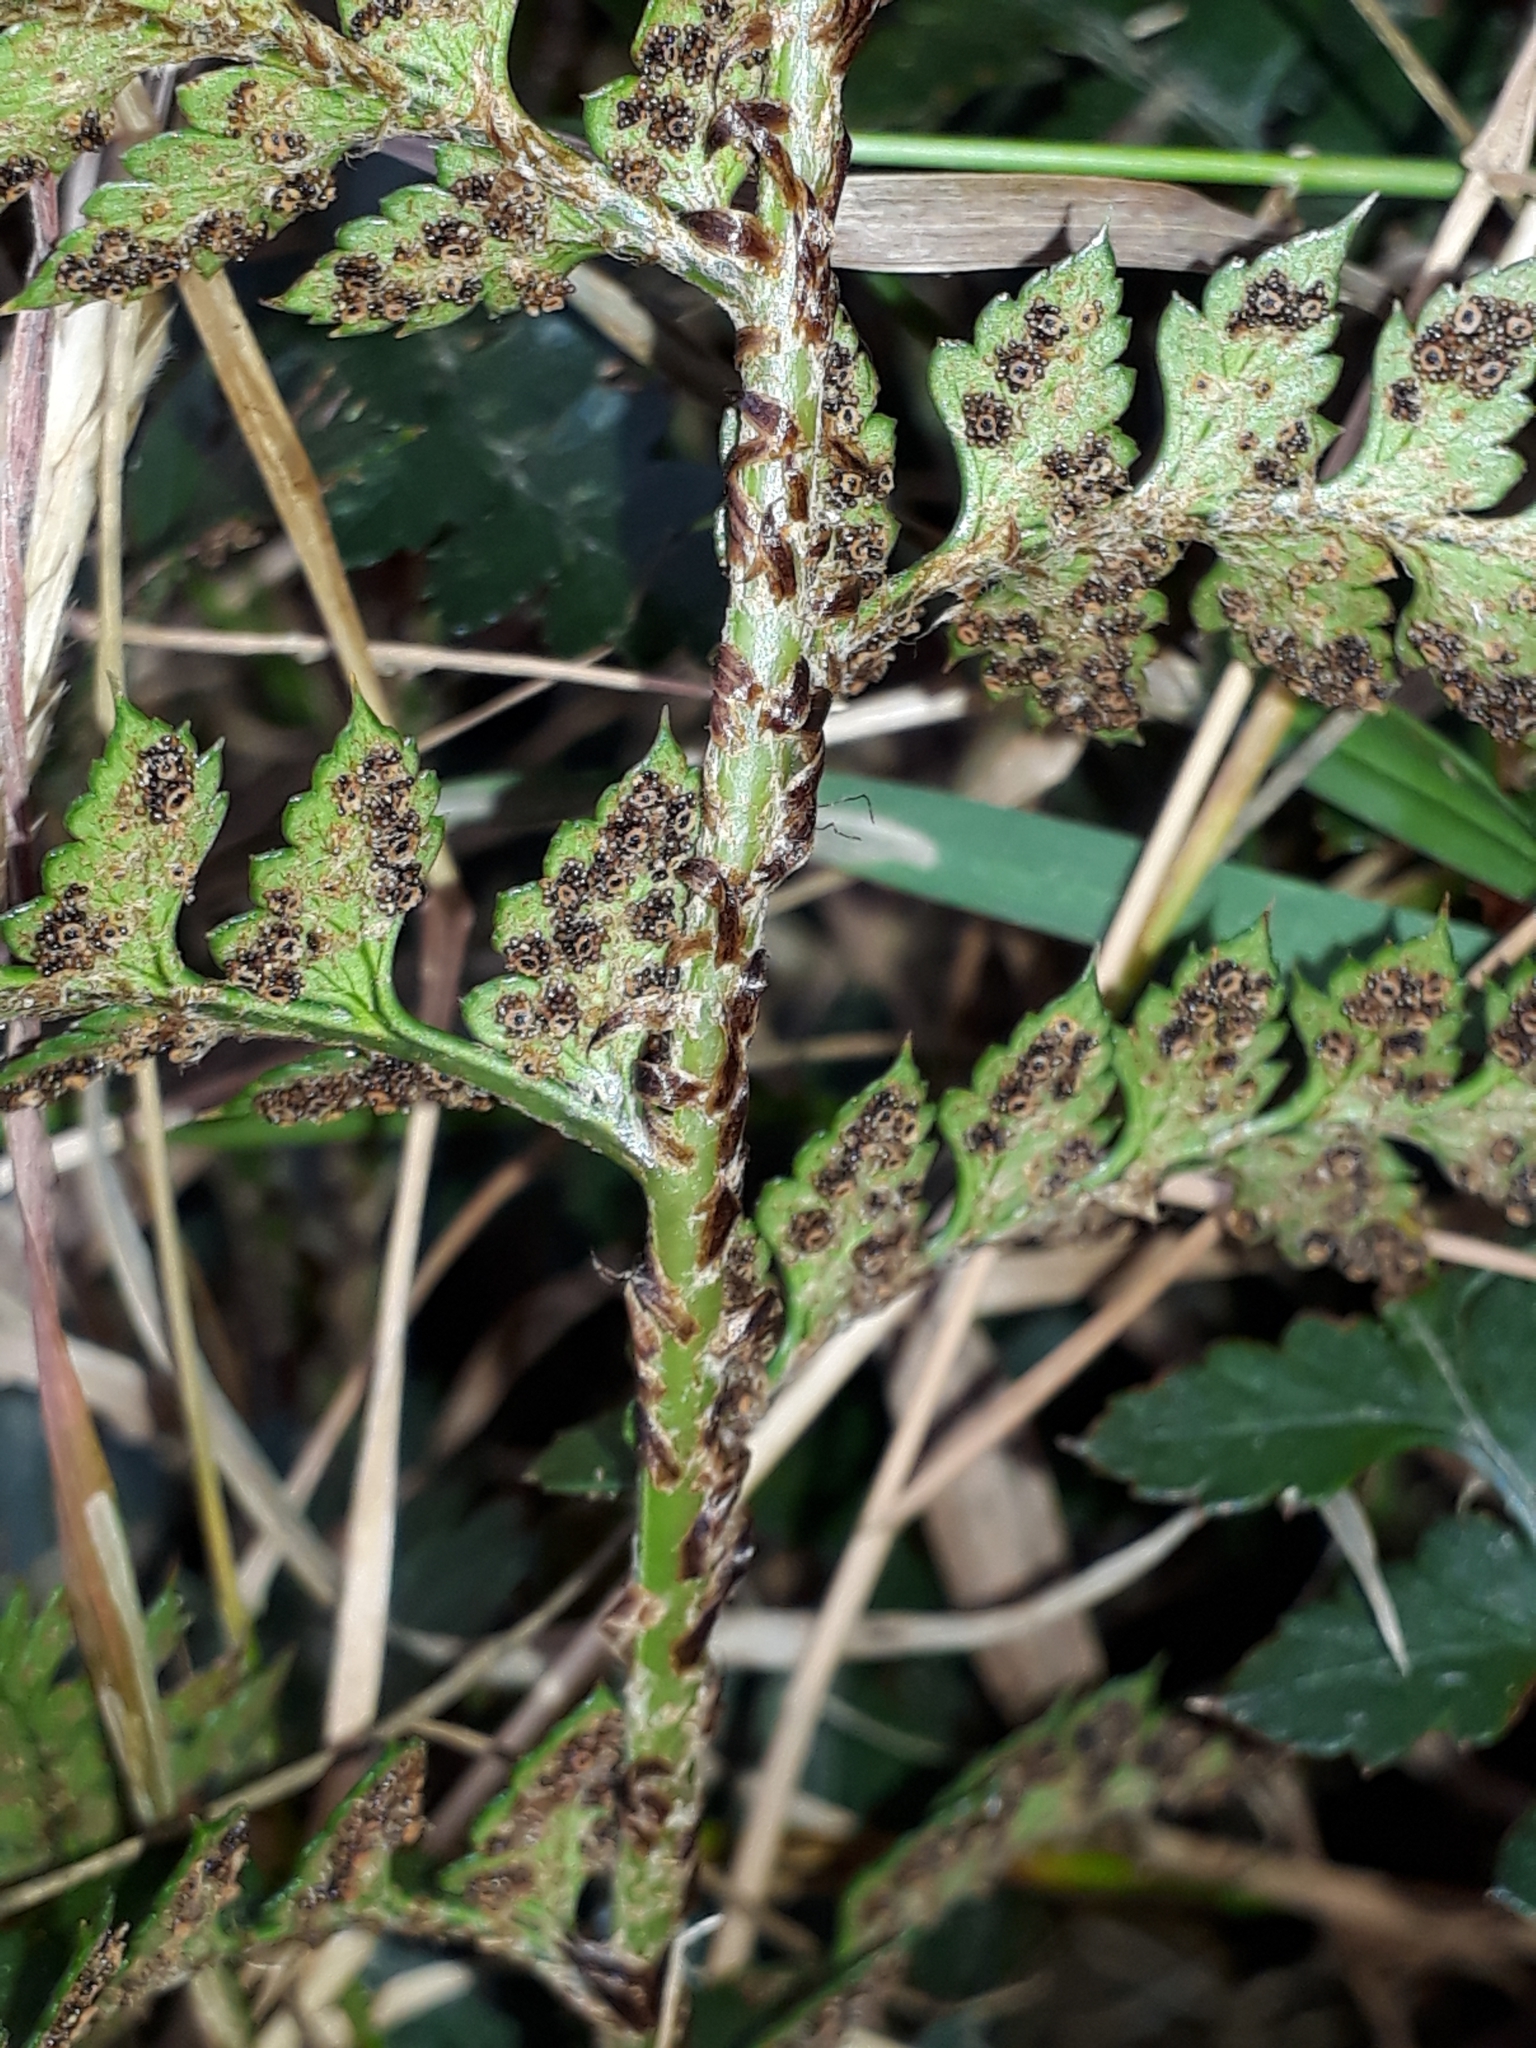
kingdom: Plantae
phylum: Tracheophyta
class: Polypodiopsida
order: Polypodiales
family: Dryopteridaceae
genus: Polystichum
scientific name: Polystichum oculatum
